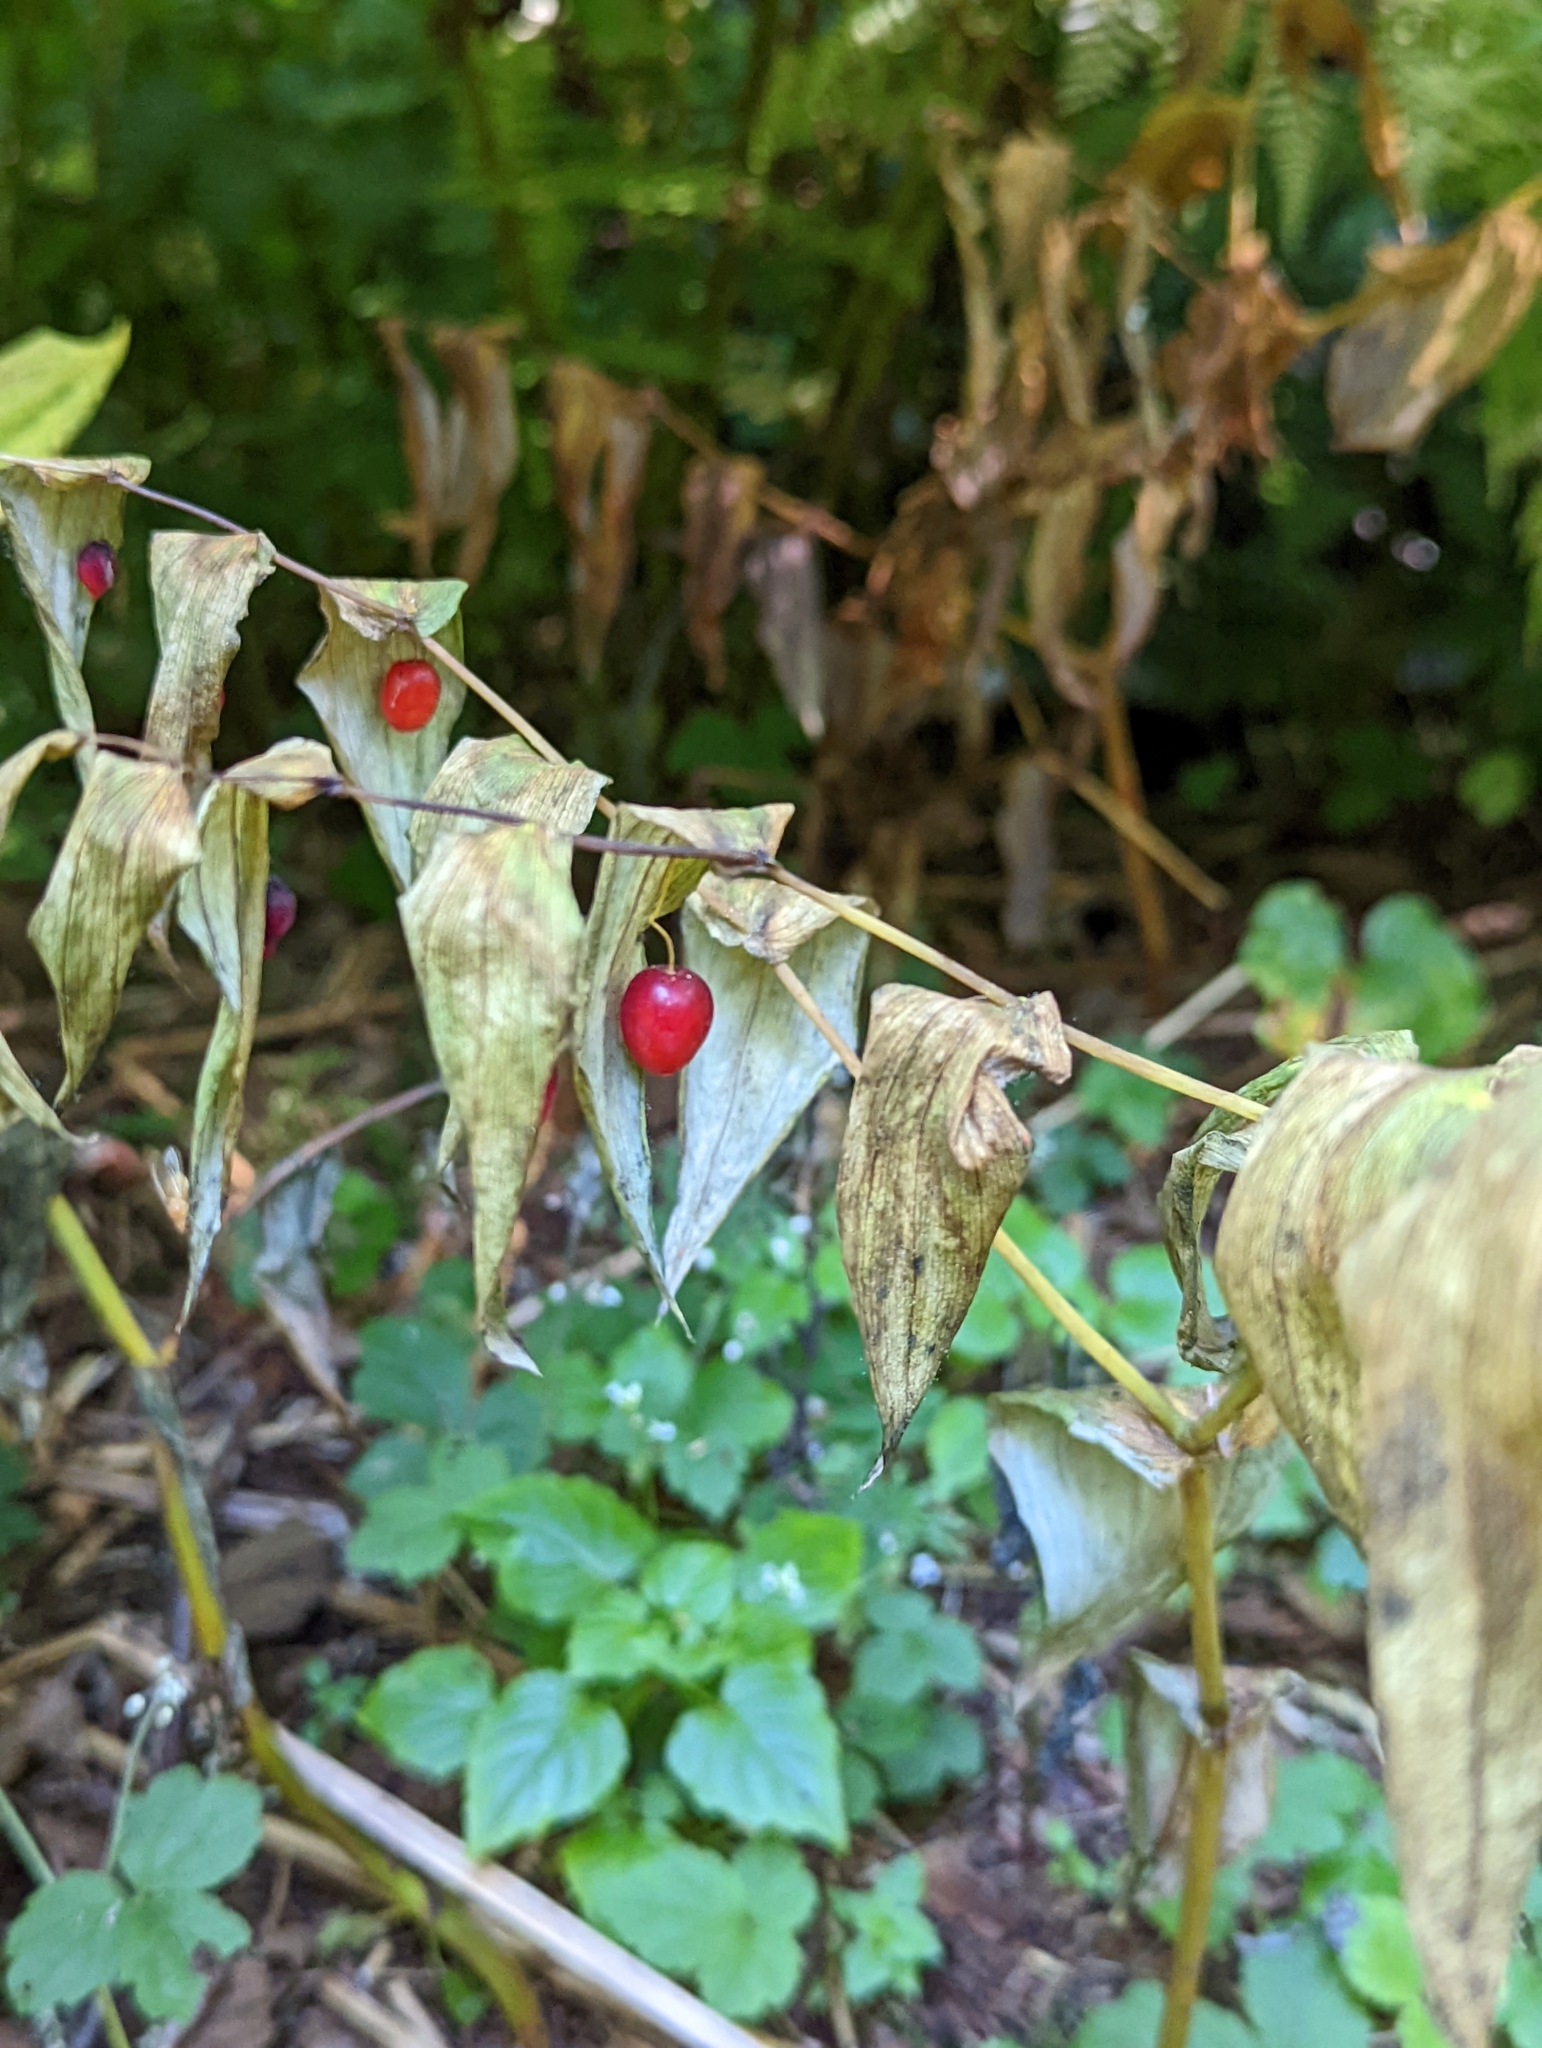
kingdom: Plantae
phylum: Tracheophyta
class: Liliopsida
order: Liliales
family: Liliaceae
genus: Streptopus
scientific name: Streptopus amplexifolius
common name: Clasp twisted stalk
